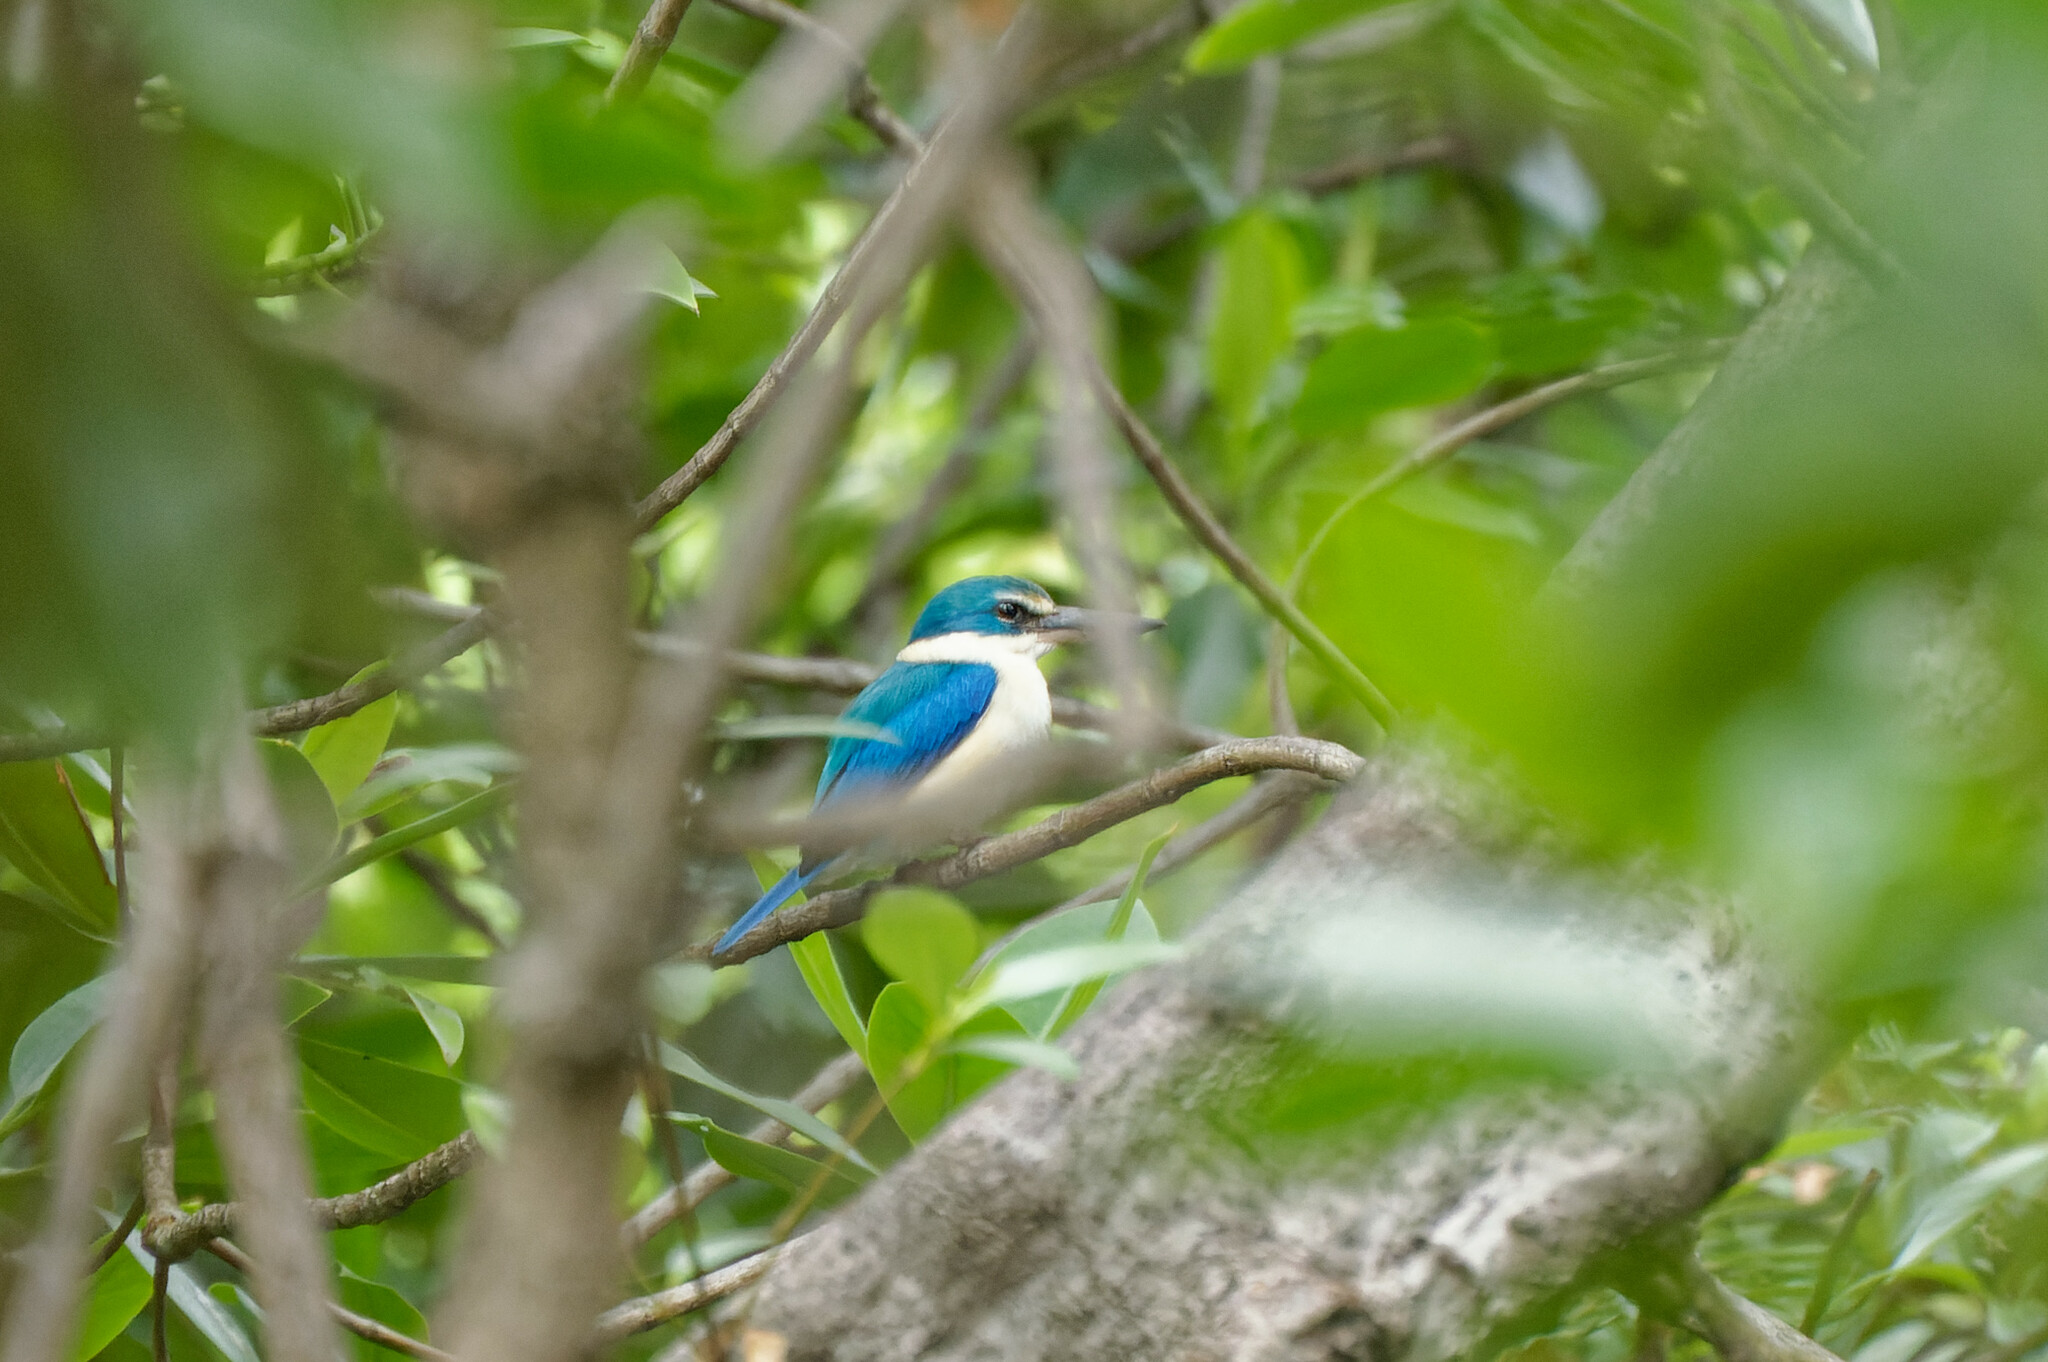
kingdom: Animalia
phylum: Chordata
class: Aves
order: Coraciiformes
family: Alcedinidae
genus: Todiramphus
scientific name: Todiramphus chloris
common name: Collared kingfisher
